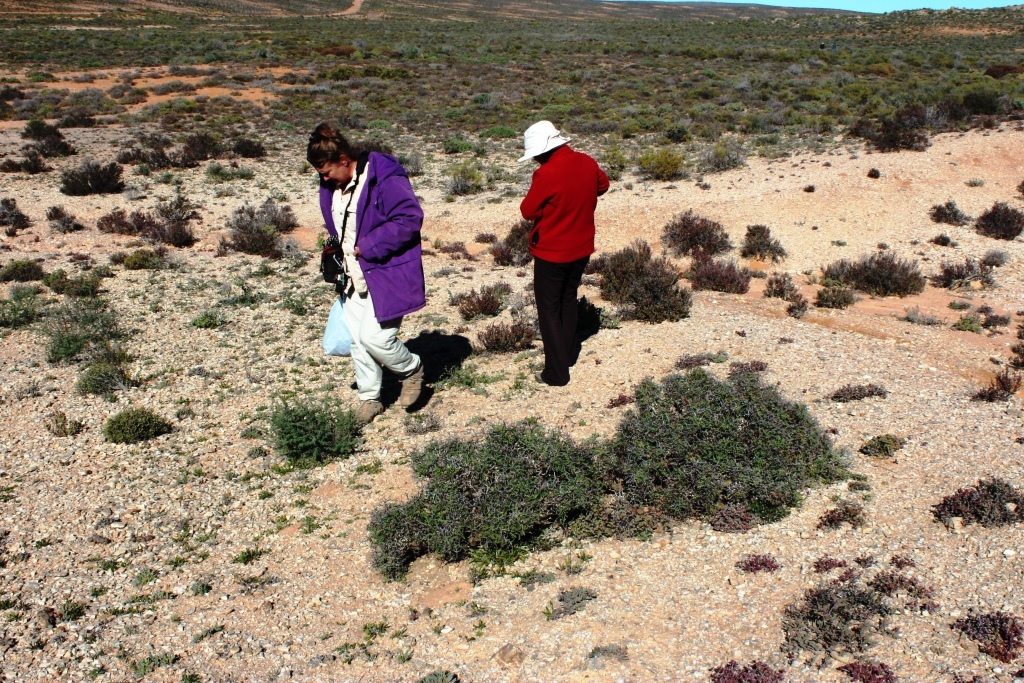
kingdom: Plantae
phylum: Tracheophyta
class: Magnoliopsida
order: Geraniales
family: Geraniaceae
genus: Pelargonium
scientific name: Pelargonium crithmifolium
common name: Samphire-leaf pelargonium
